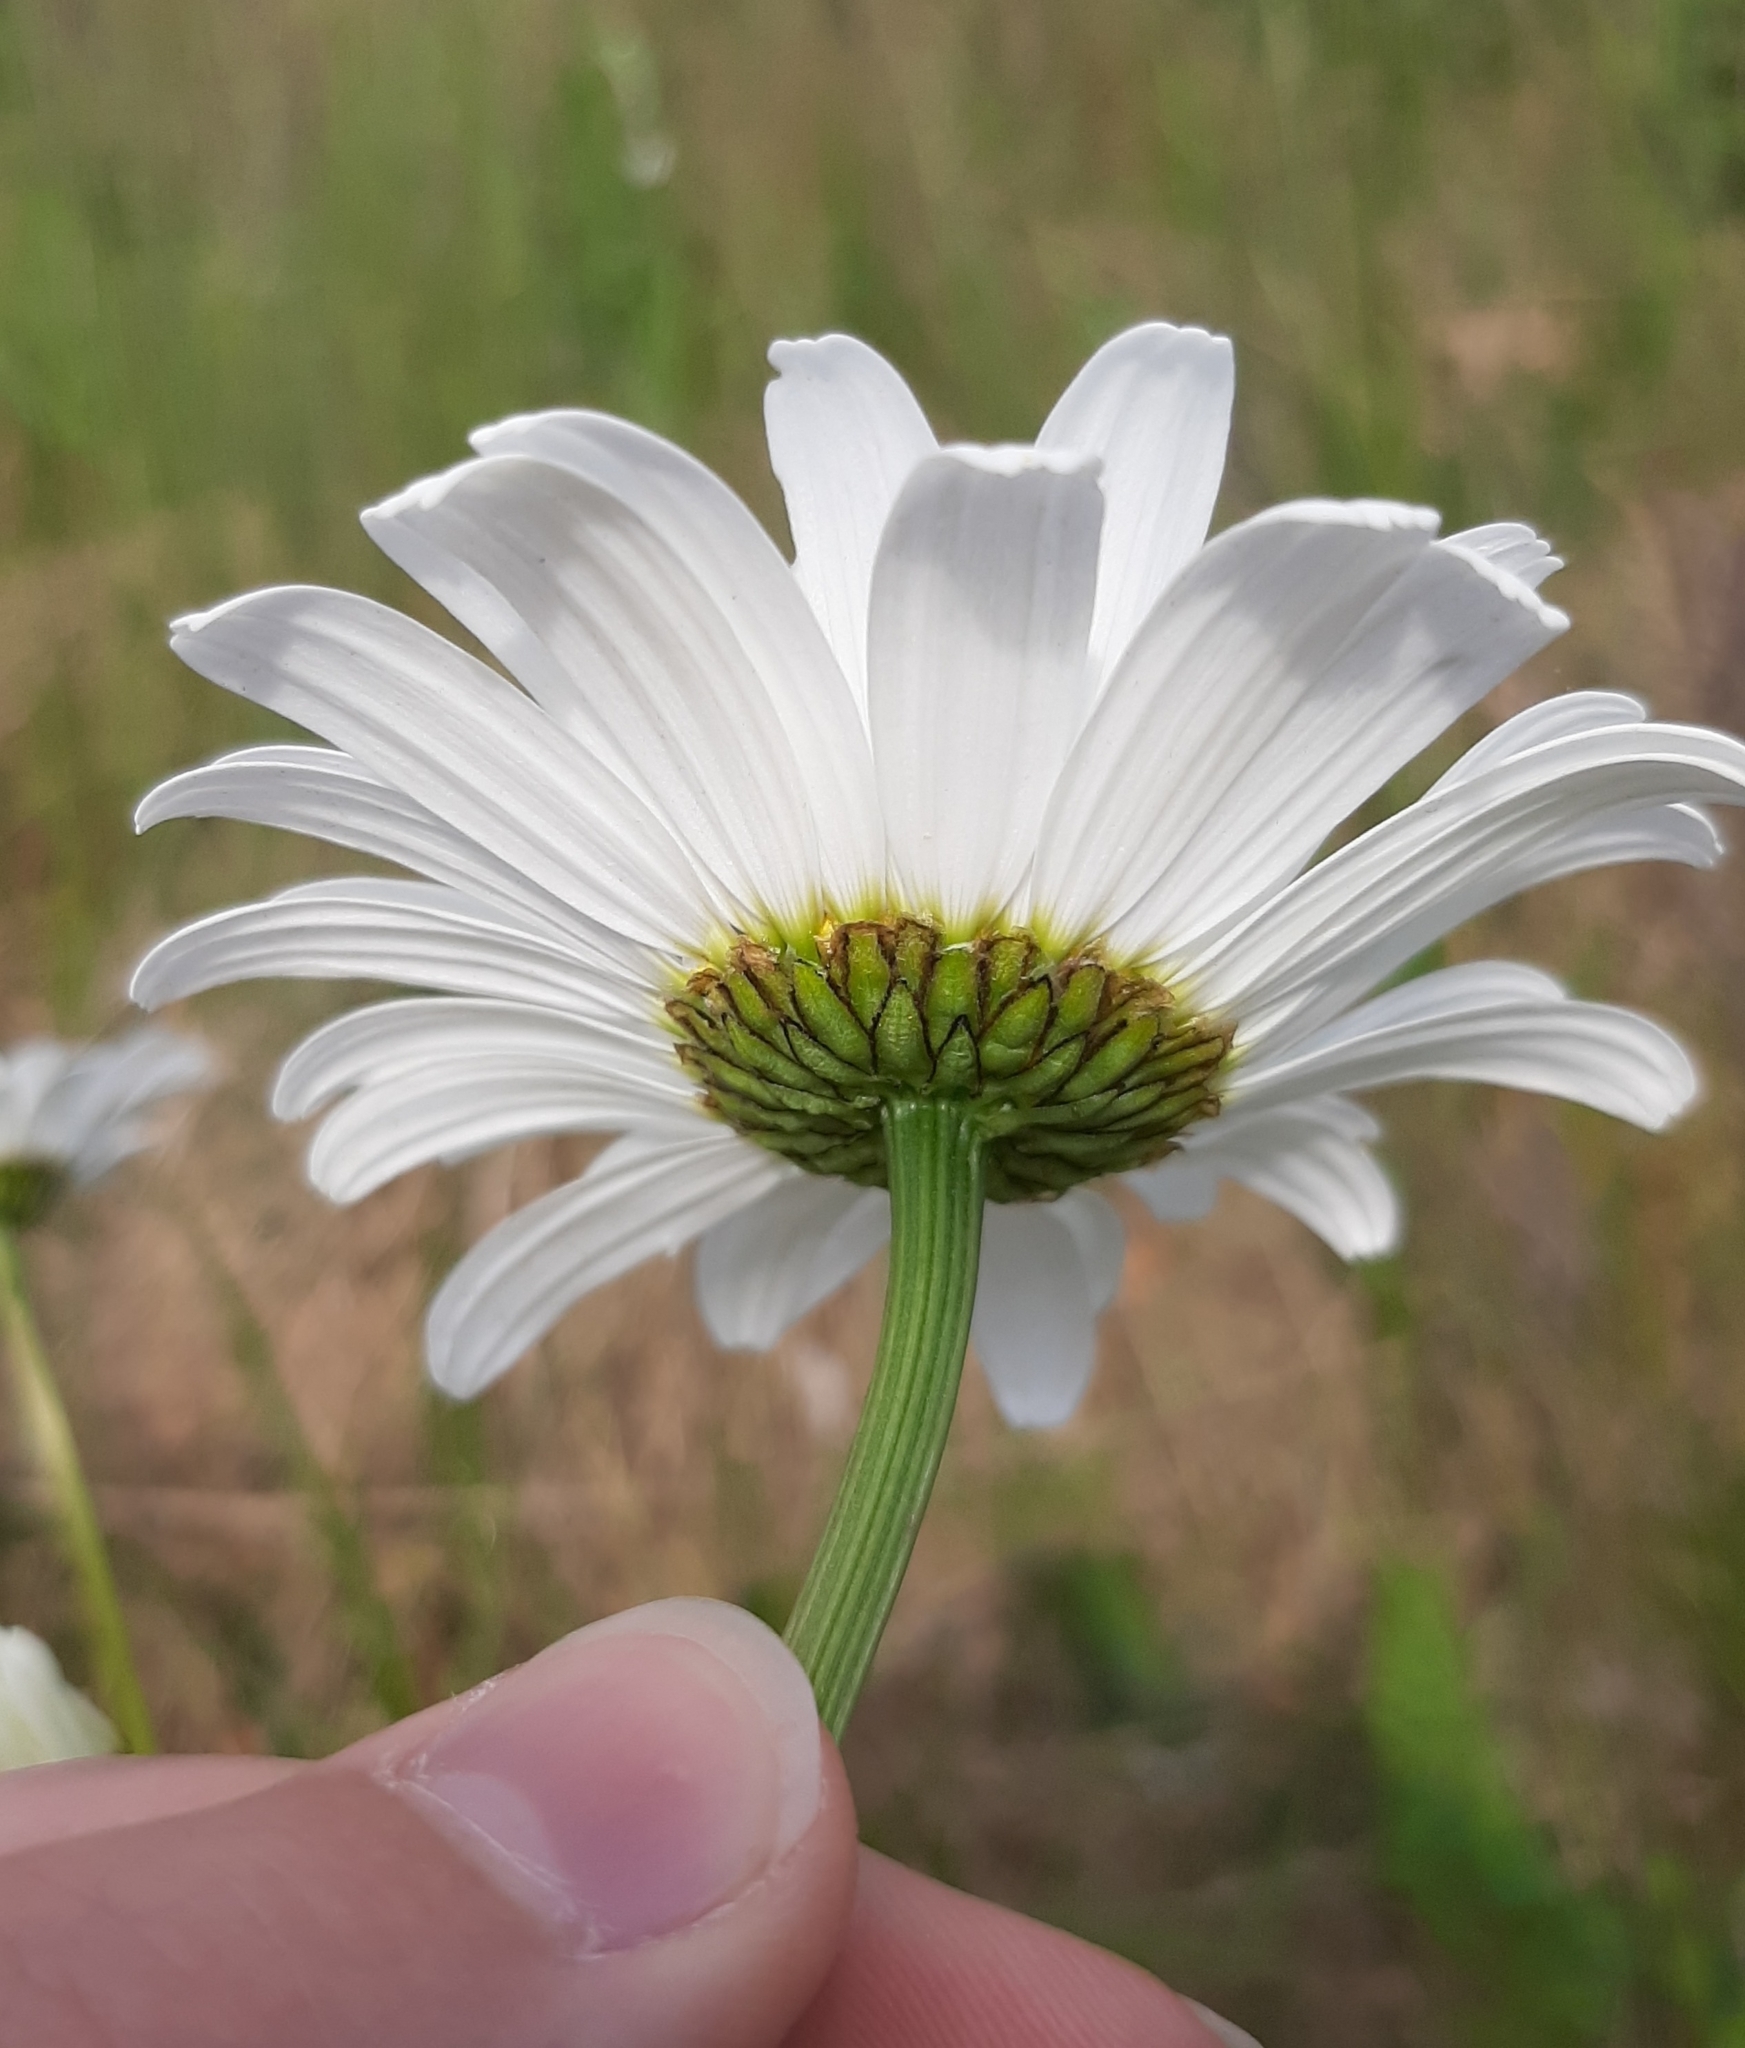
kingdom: Plantae
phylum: Tracheophyta
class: Magnoliopsida
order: Asterales
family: Asteraceae
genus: Leucanthemum
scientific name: Leucanthemum vulgare
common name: Oxeye daisy
